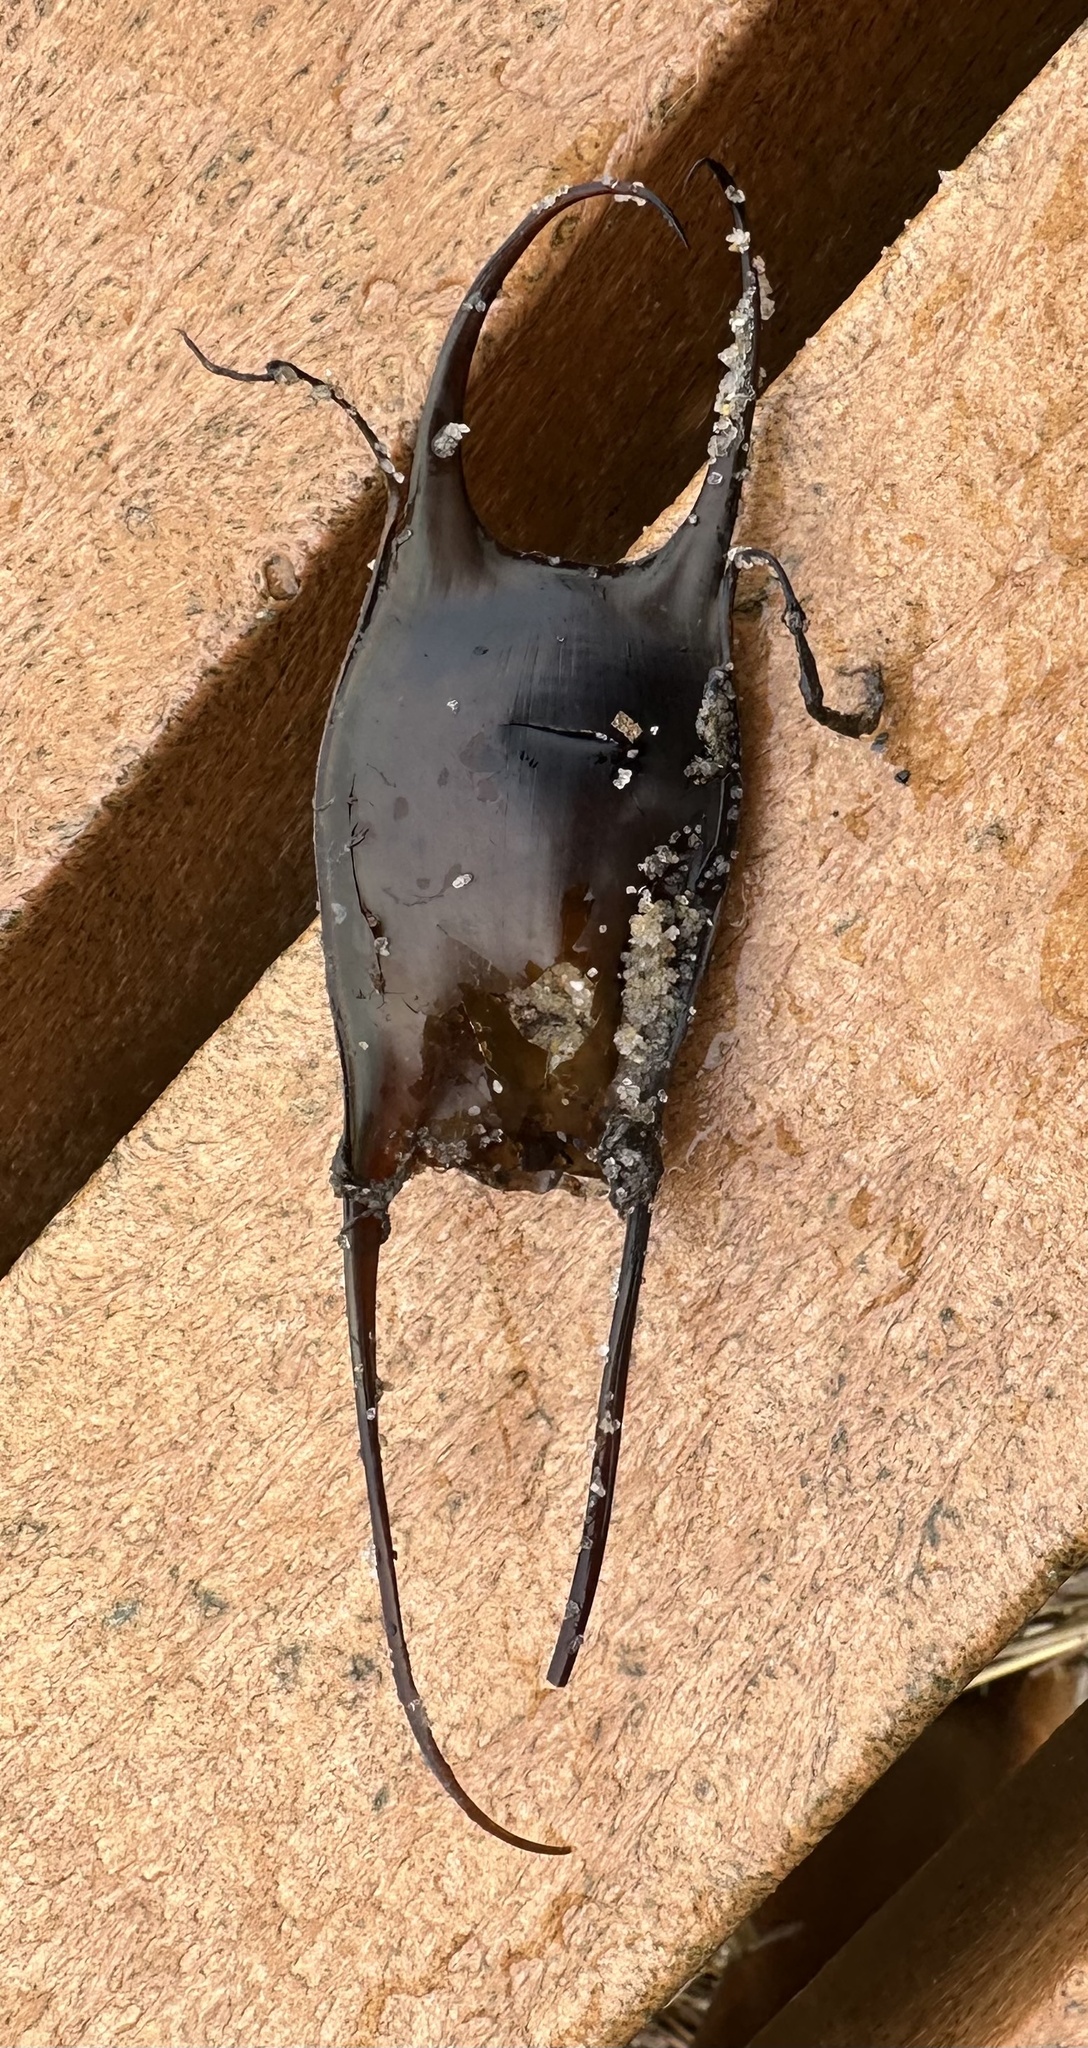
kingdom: Animalia
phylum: Chordata
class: Elasmobranchii
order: Rajiformes
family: Rajidae
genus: Leucoraja
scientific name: Leucoraja erinacea
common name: Little skate
